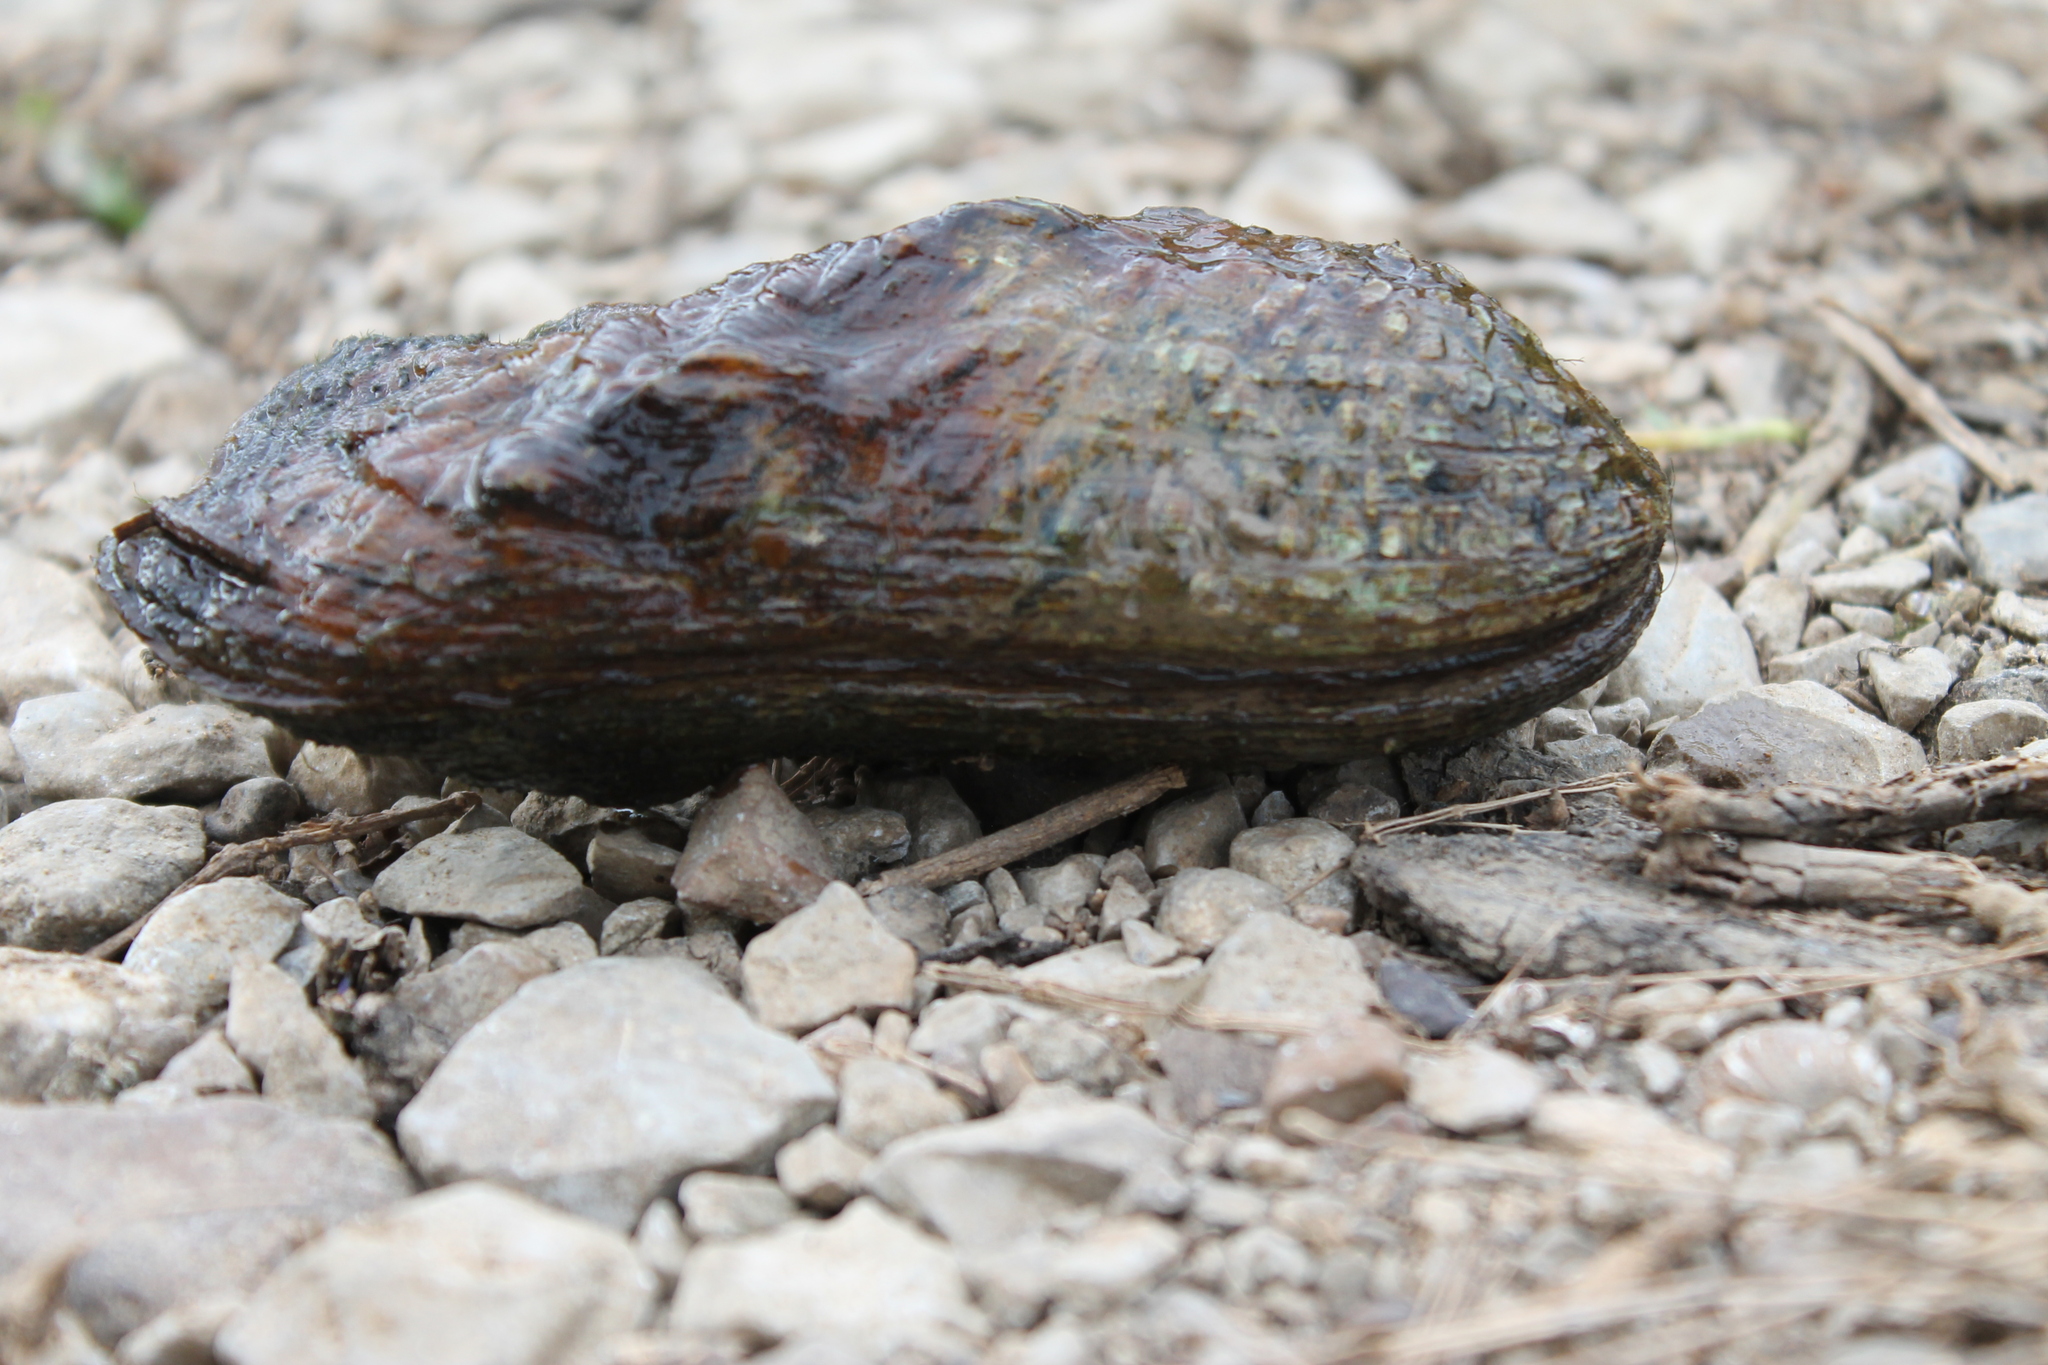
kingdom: Animalia
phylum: Mollusca
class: Bivalvia
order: Unionida
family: Unionidae
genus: Theliderma
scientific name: Theliderma cylindrica
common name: Rabbitsfoot
